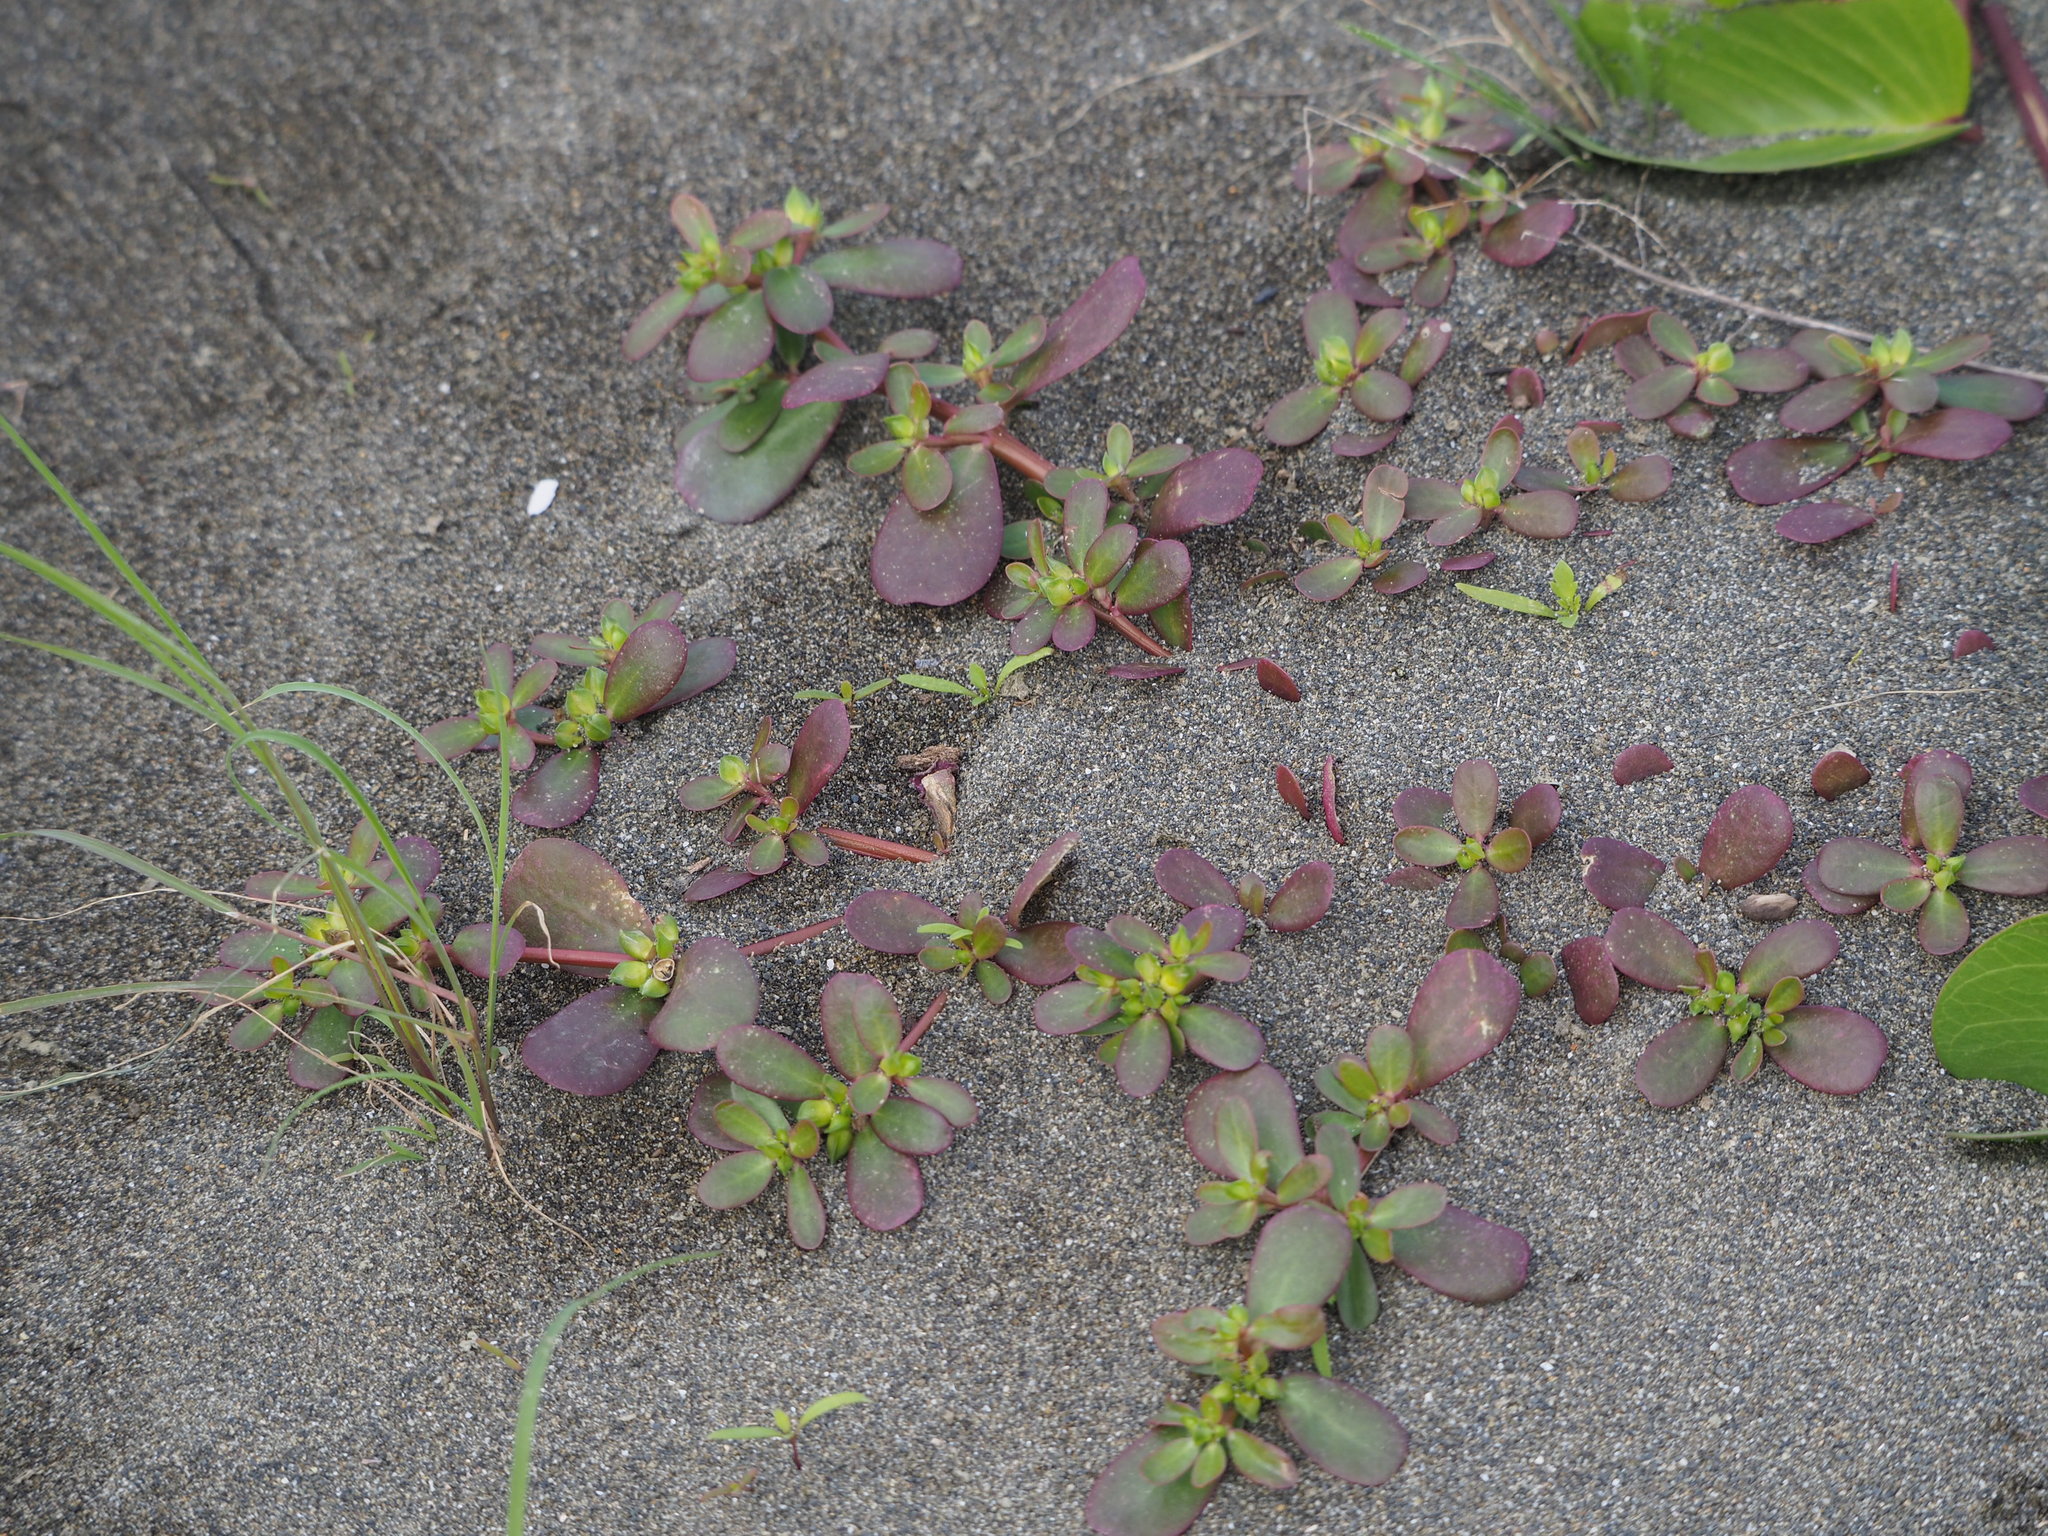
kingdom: Plantae
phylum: Tracheophyta
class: Magnoliopsida
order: Caryophyllales
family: Portulacaceae
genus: Portulaca
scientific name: Portulaca oleracea
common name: Common purslane
